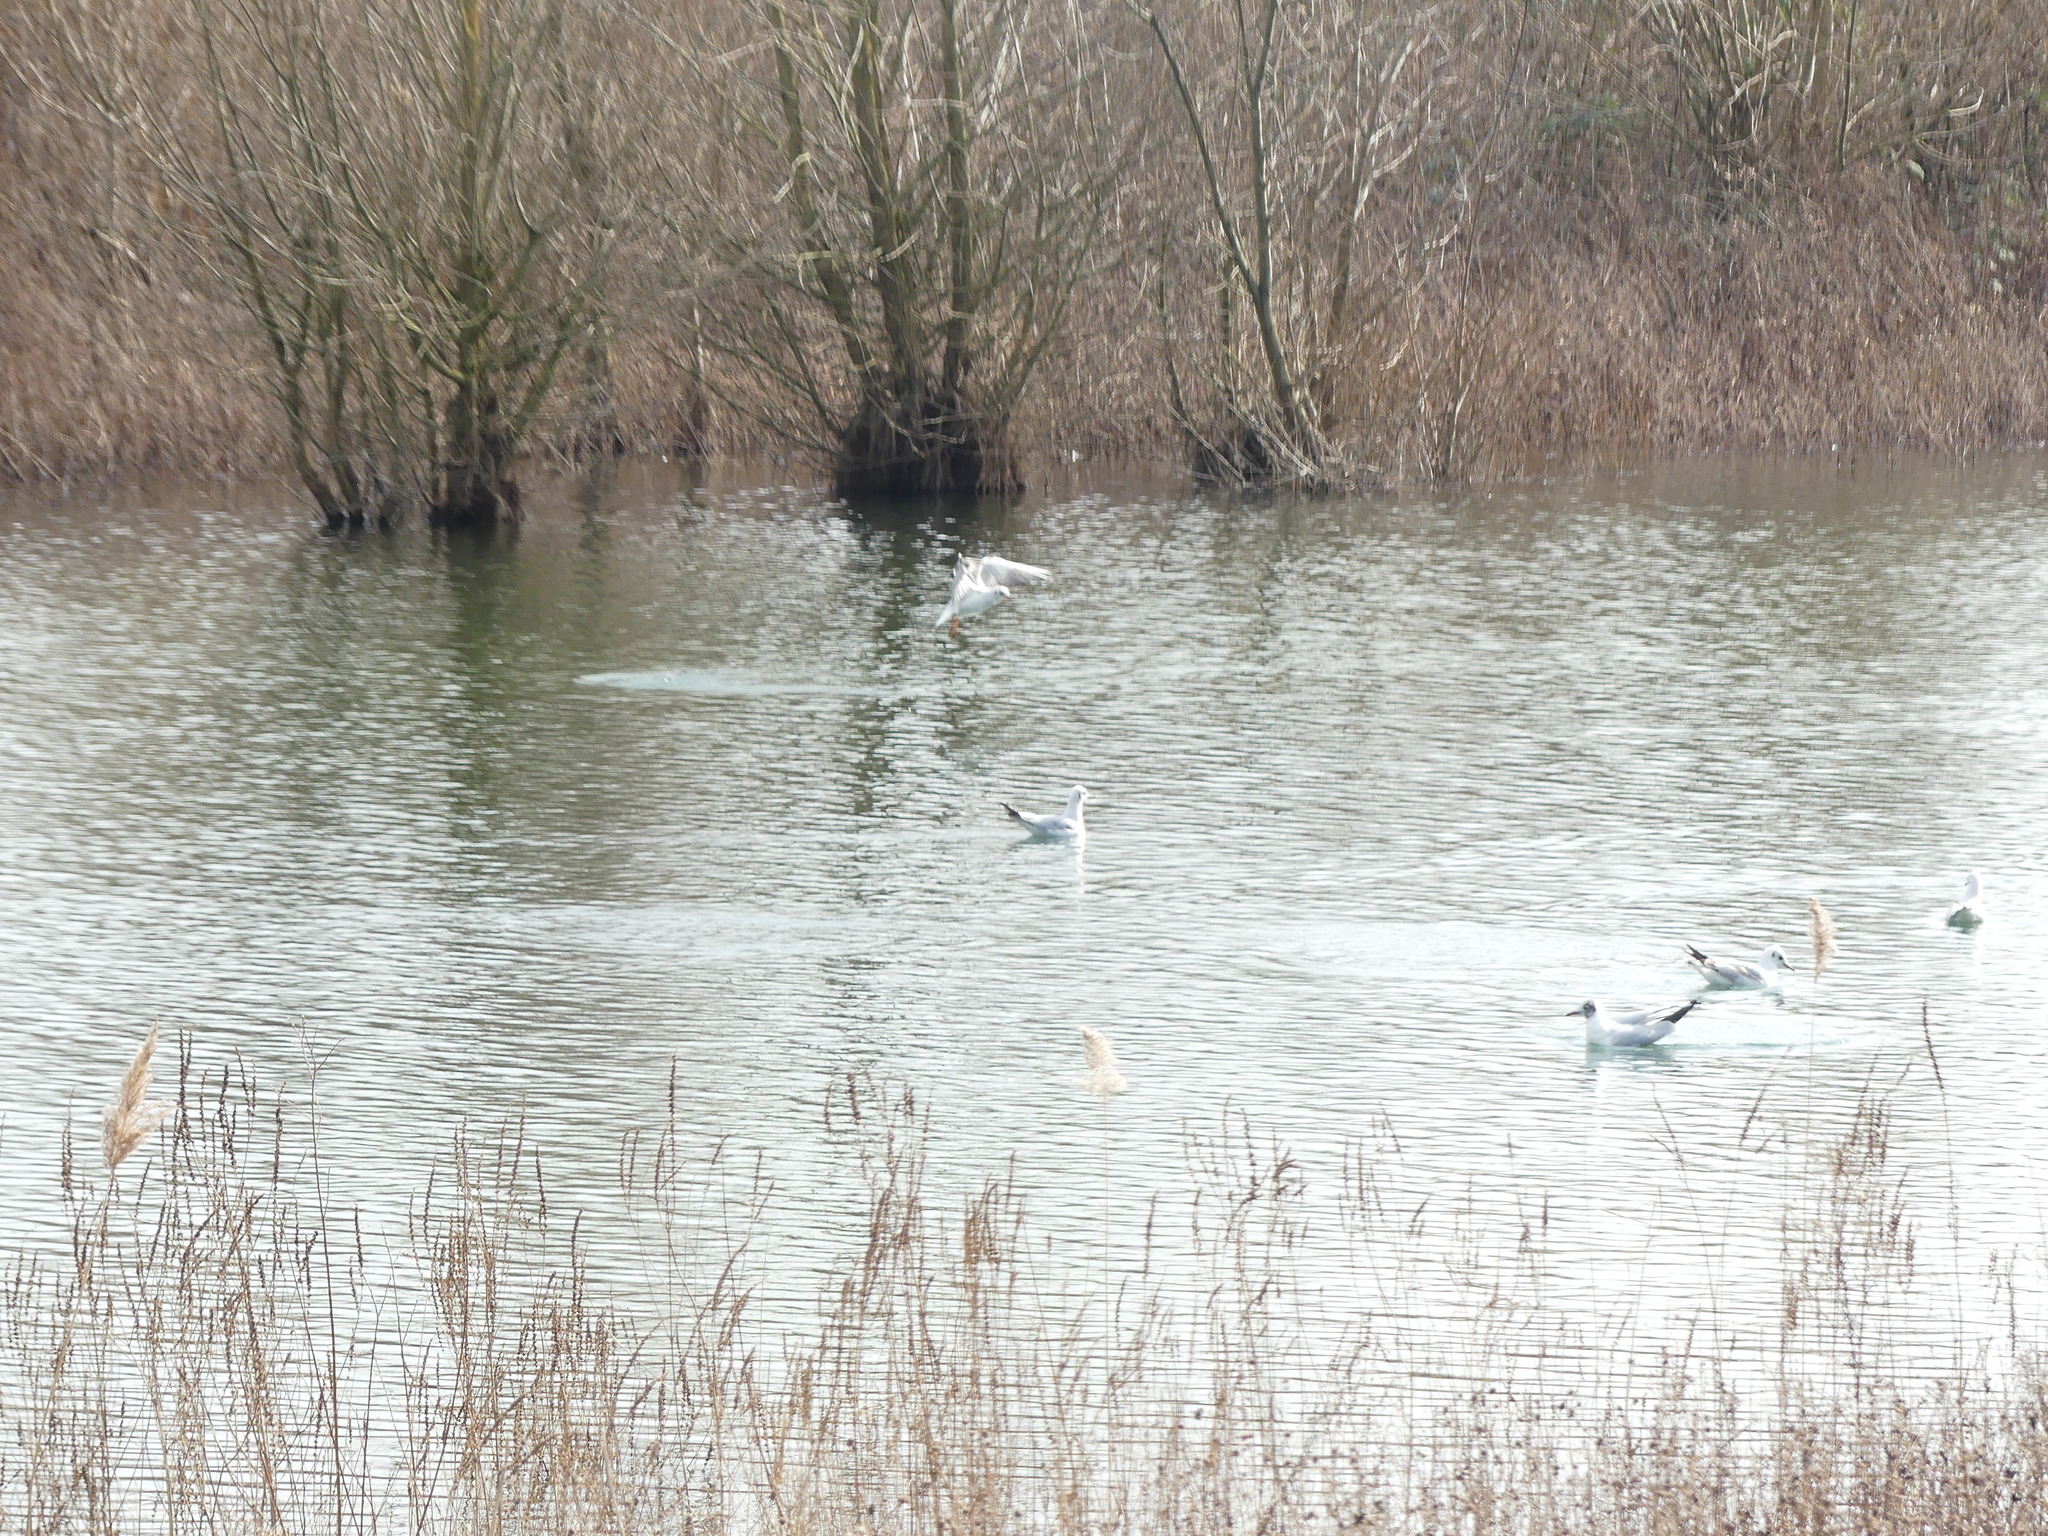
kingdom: Animalia
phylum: Chordata
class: Aves
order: Charadriiformes
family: Laridae
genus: Chroicocephalus
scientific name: Chroicocephalus ridibundus
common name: Black-headed gull
